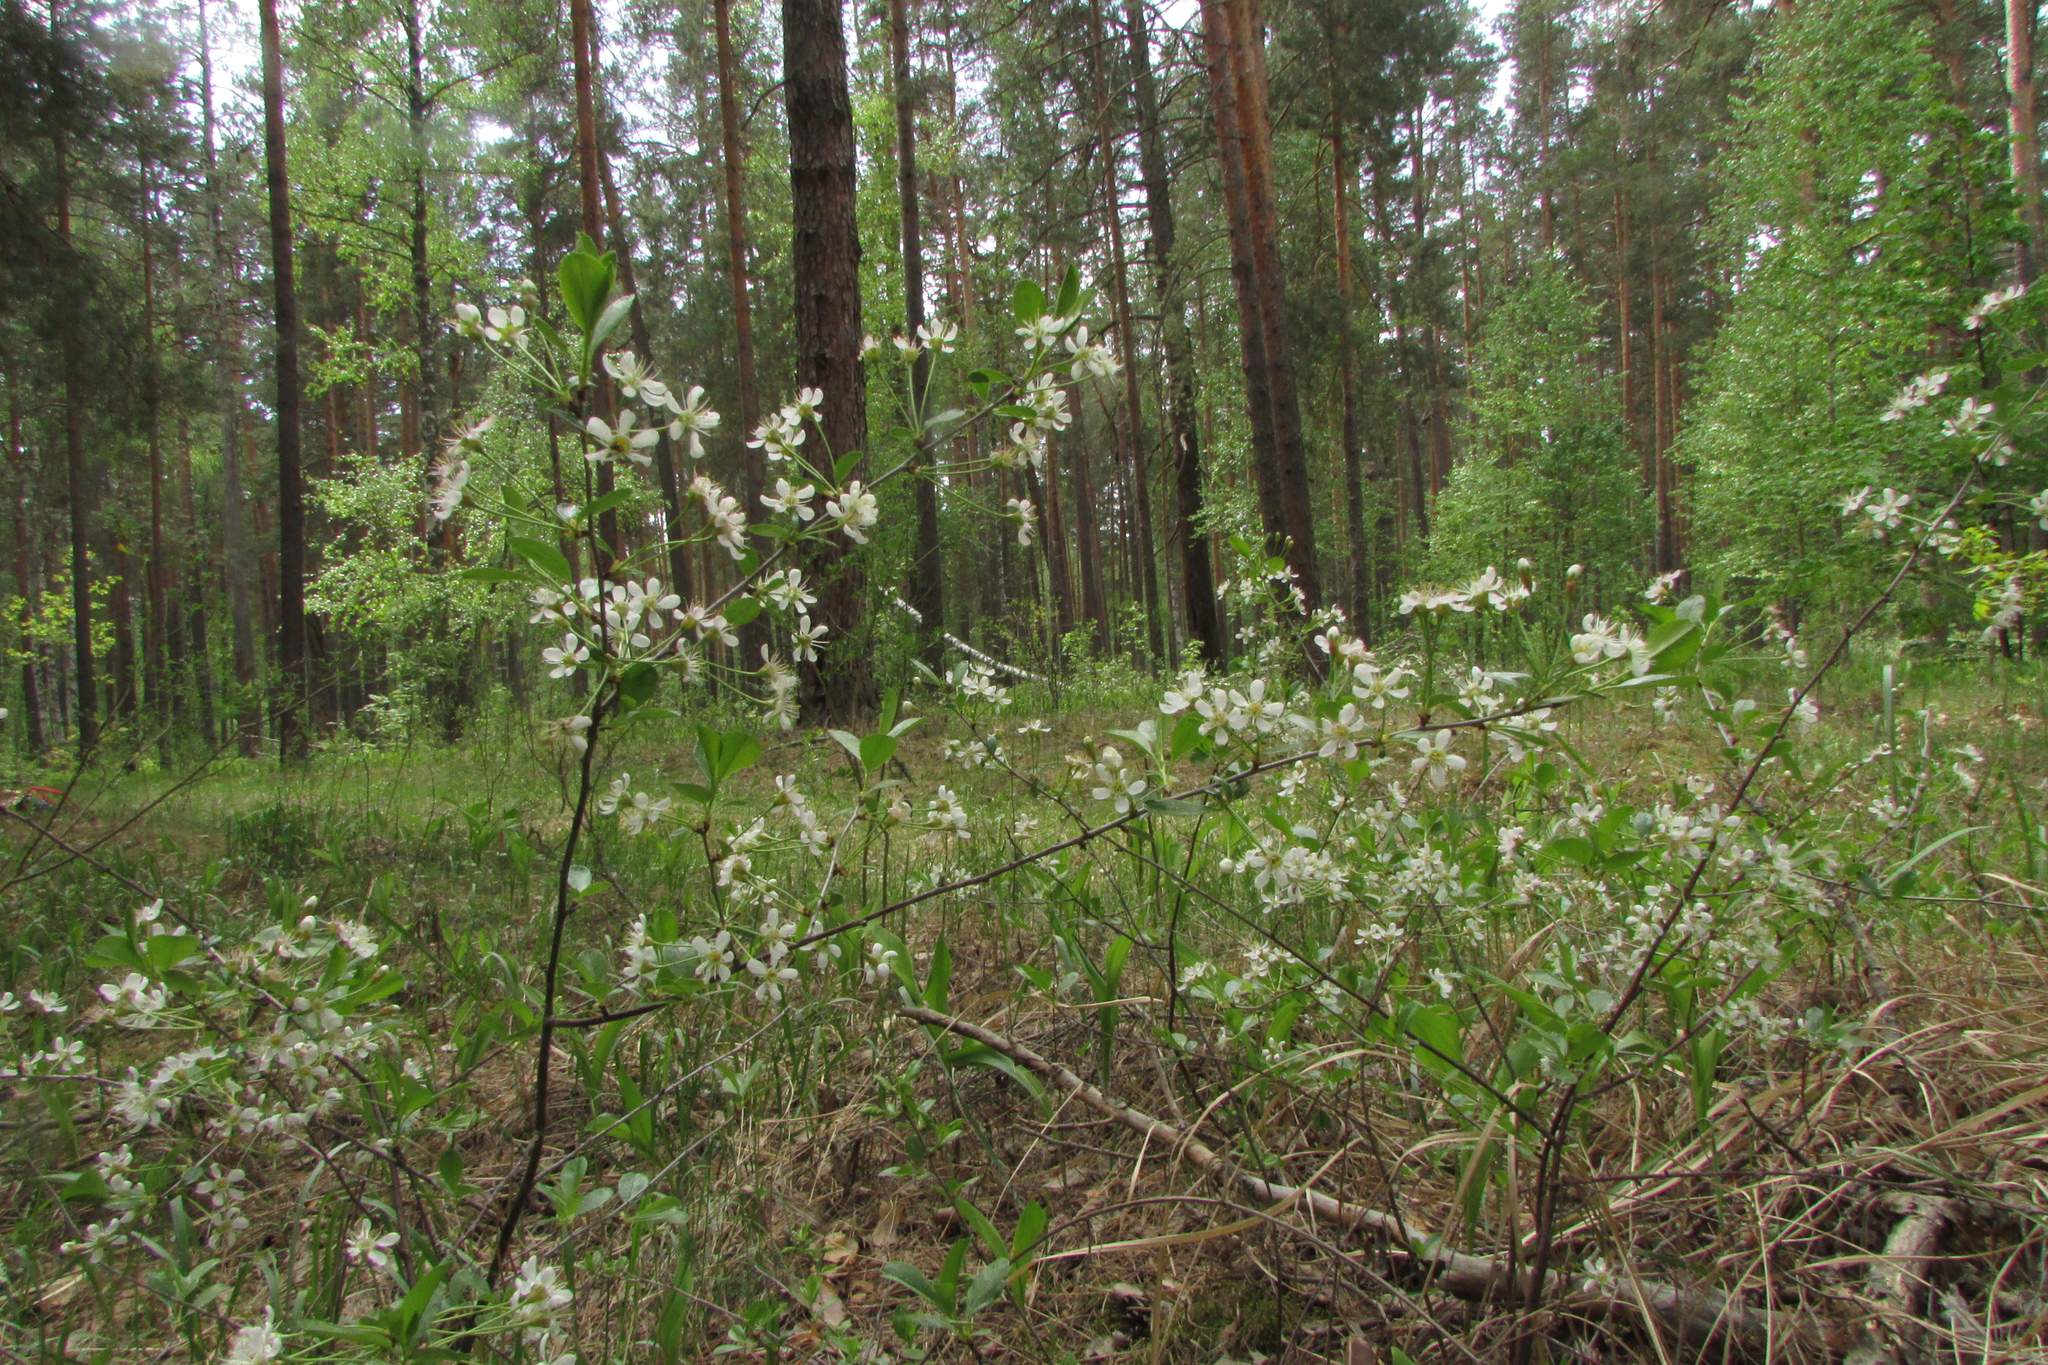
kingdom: Plantae
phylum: Tracheophyta
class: Magnoliopsida
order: Rosales
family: Rosaceae
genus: Prunus
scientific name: Prunus fruticosa
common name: European dwarf cherry
